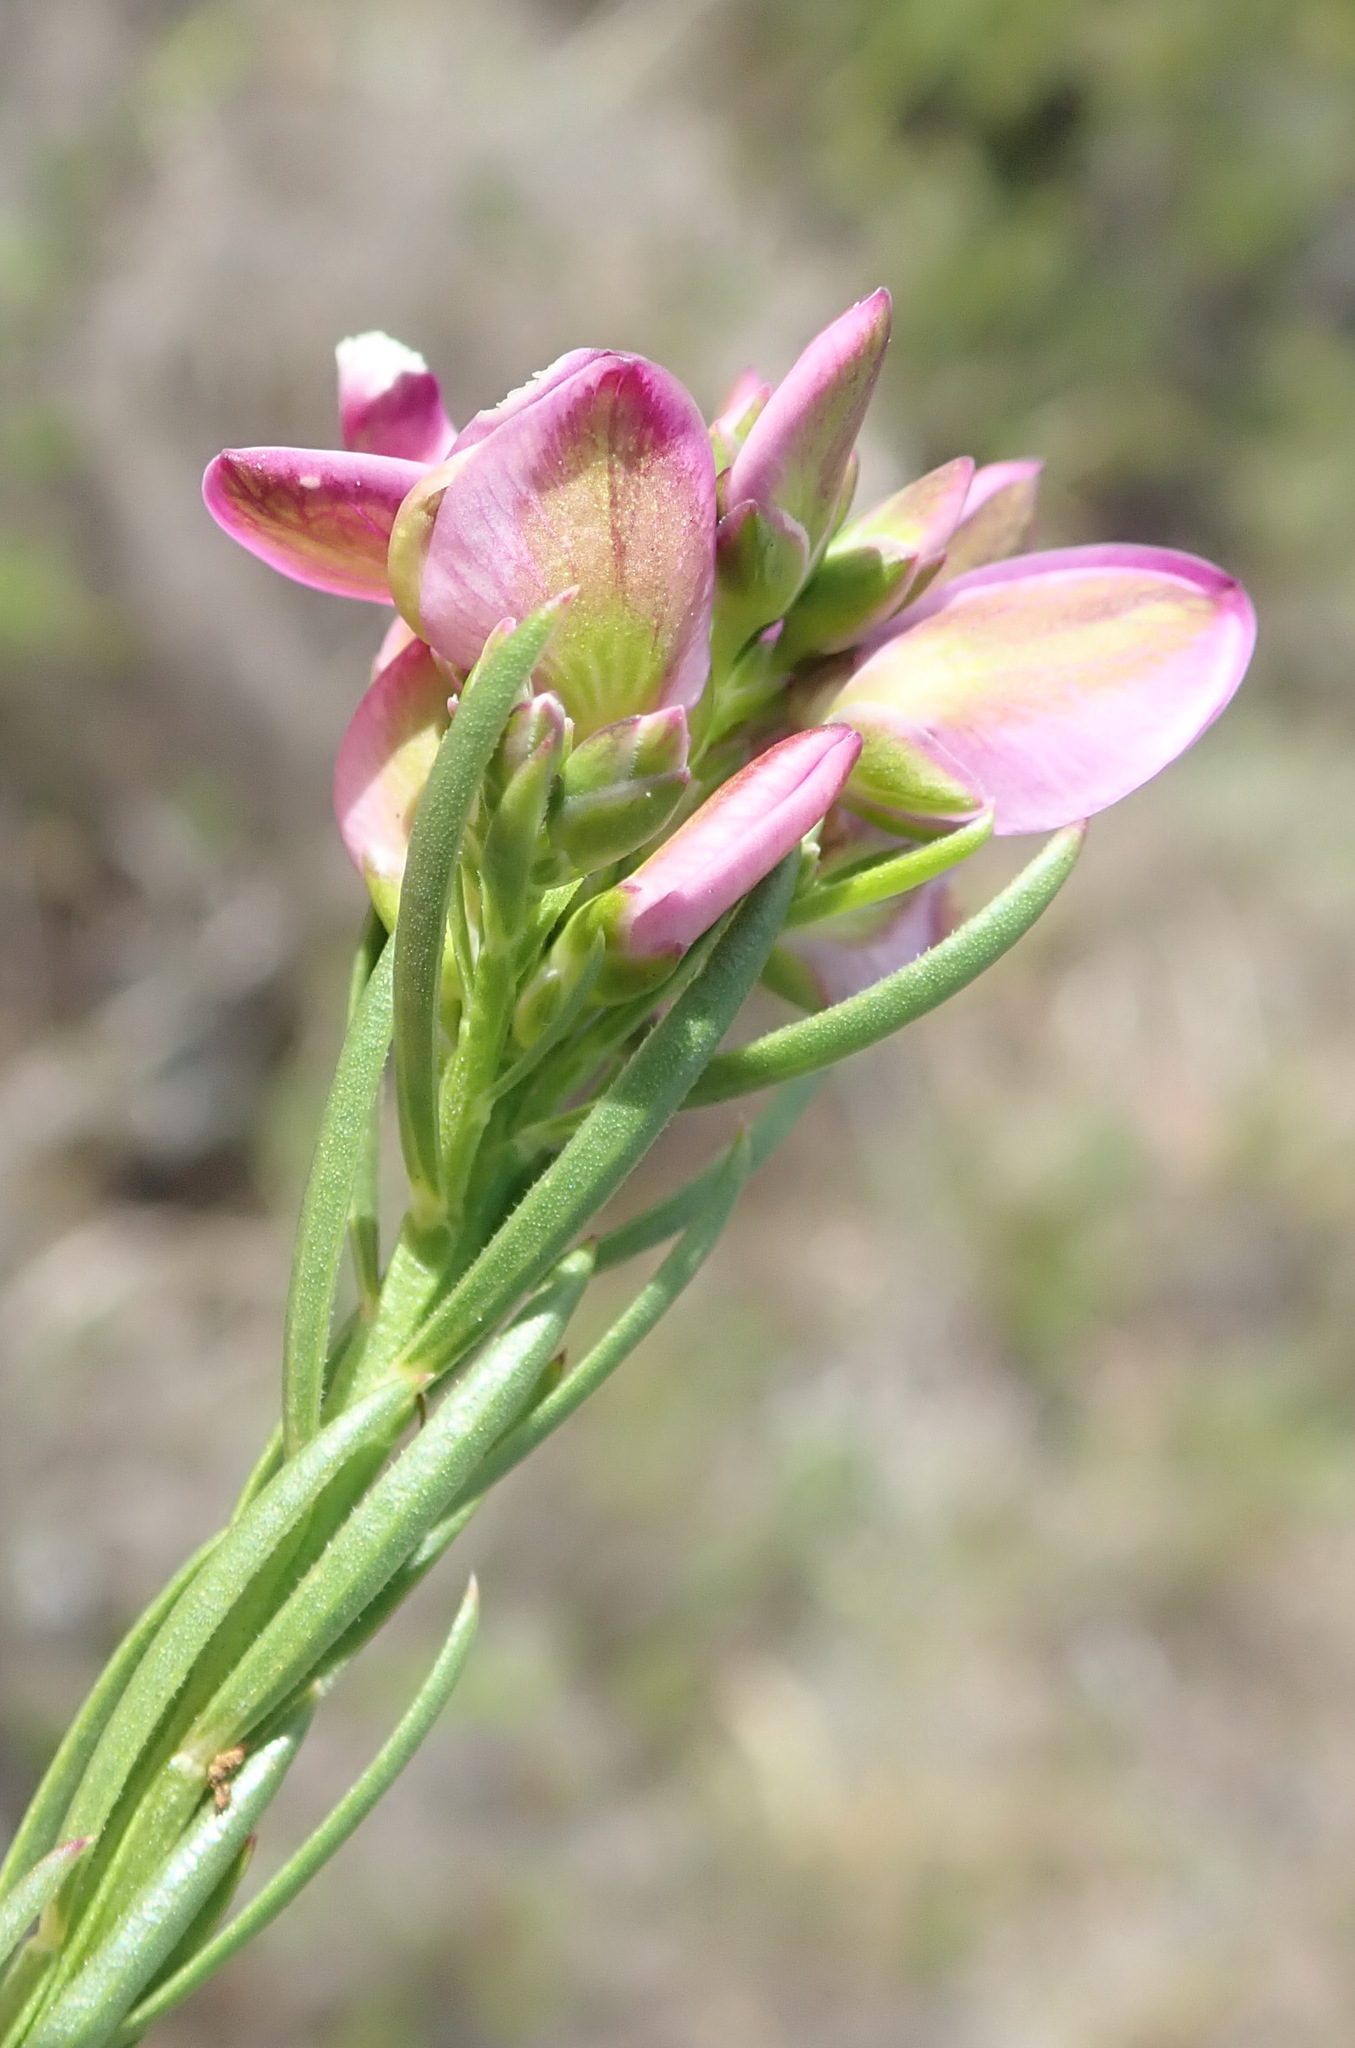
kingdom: Plantae
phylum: Tracheophyta
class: Magnoliopsida
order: Fabales
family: Polygalaceae
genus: Polygala
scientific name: Polygala ericifolia
